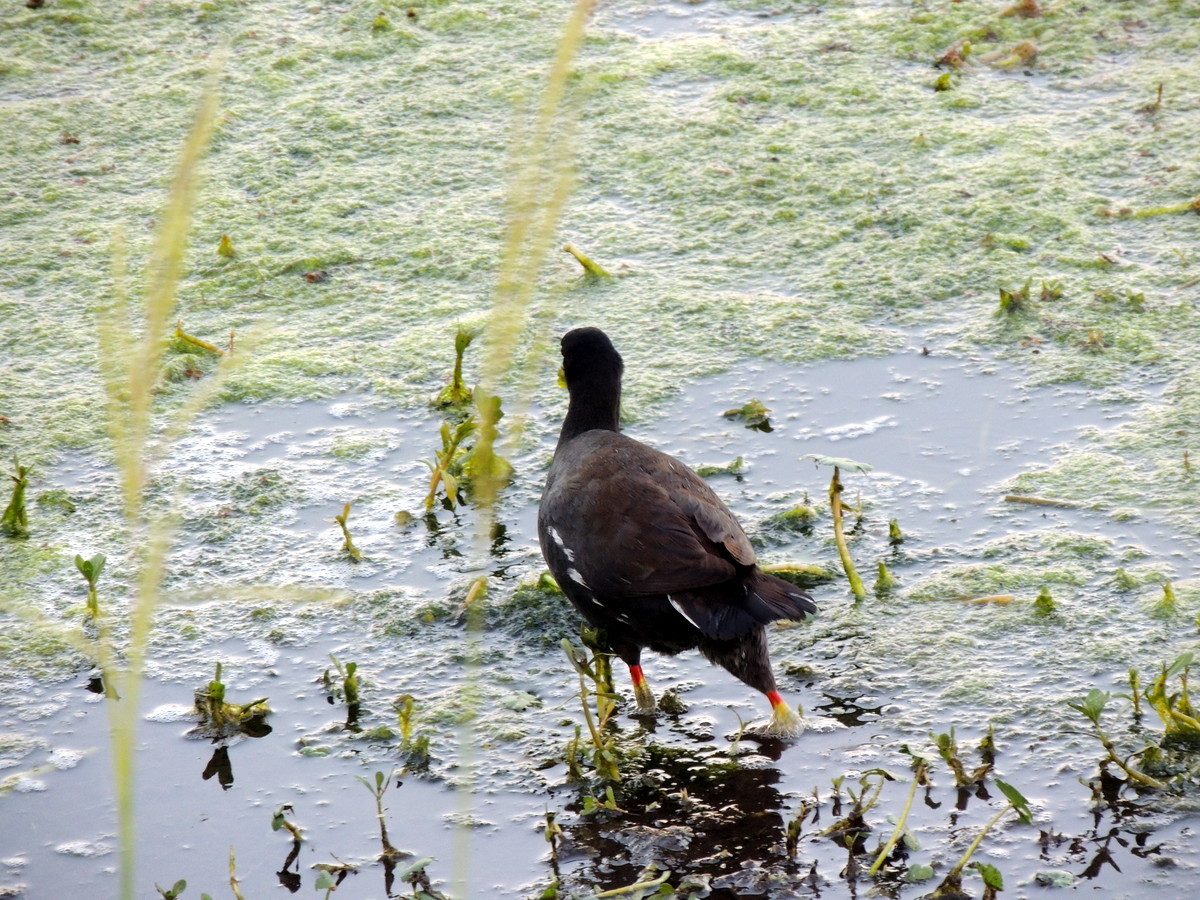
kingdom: Animalia
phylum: Chordata
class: Aves
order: Gruiformes
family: Rallidae
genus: Gallinula
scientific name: Gallinula chloropus
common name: Common moorhen
